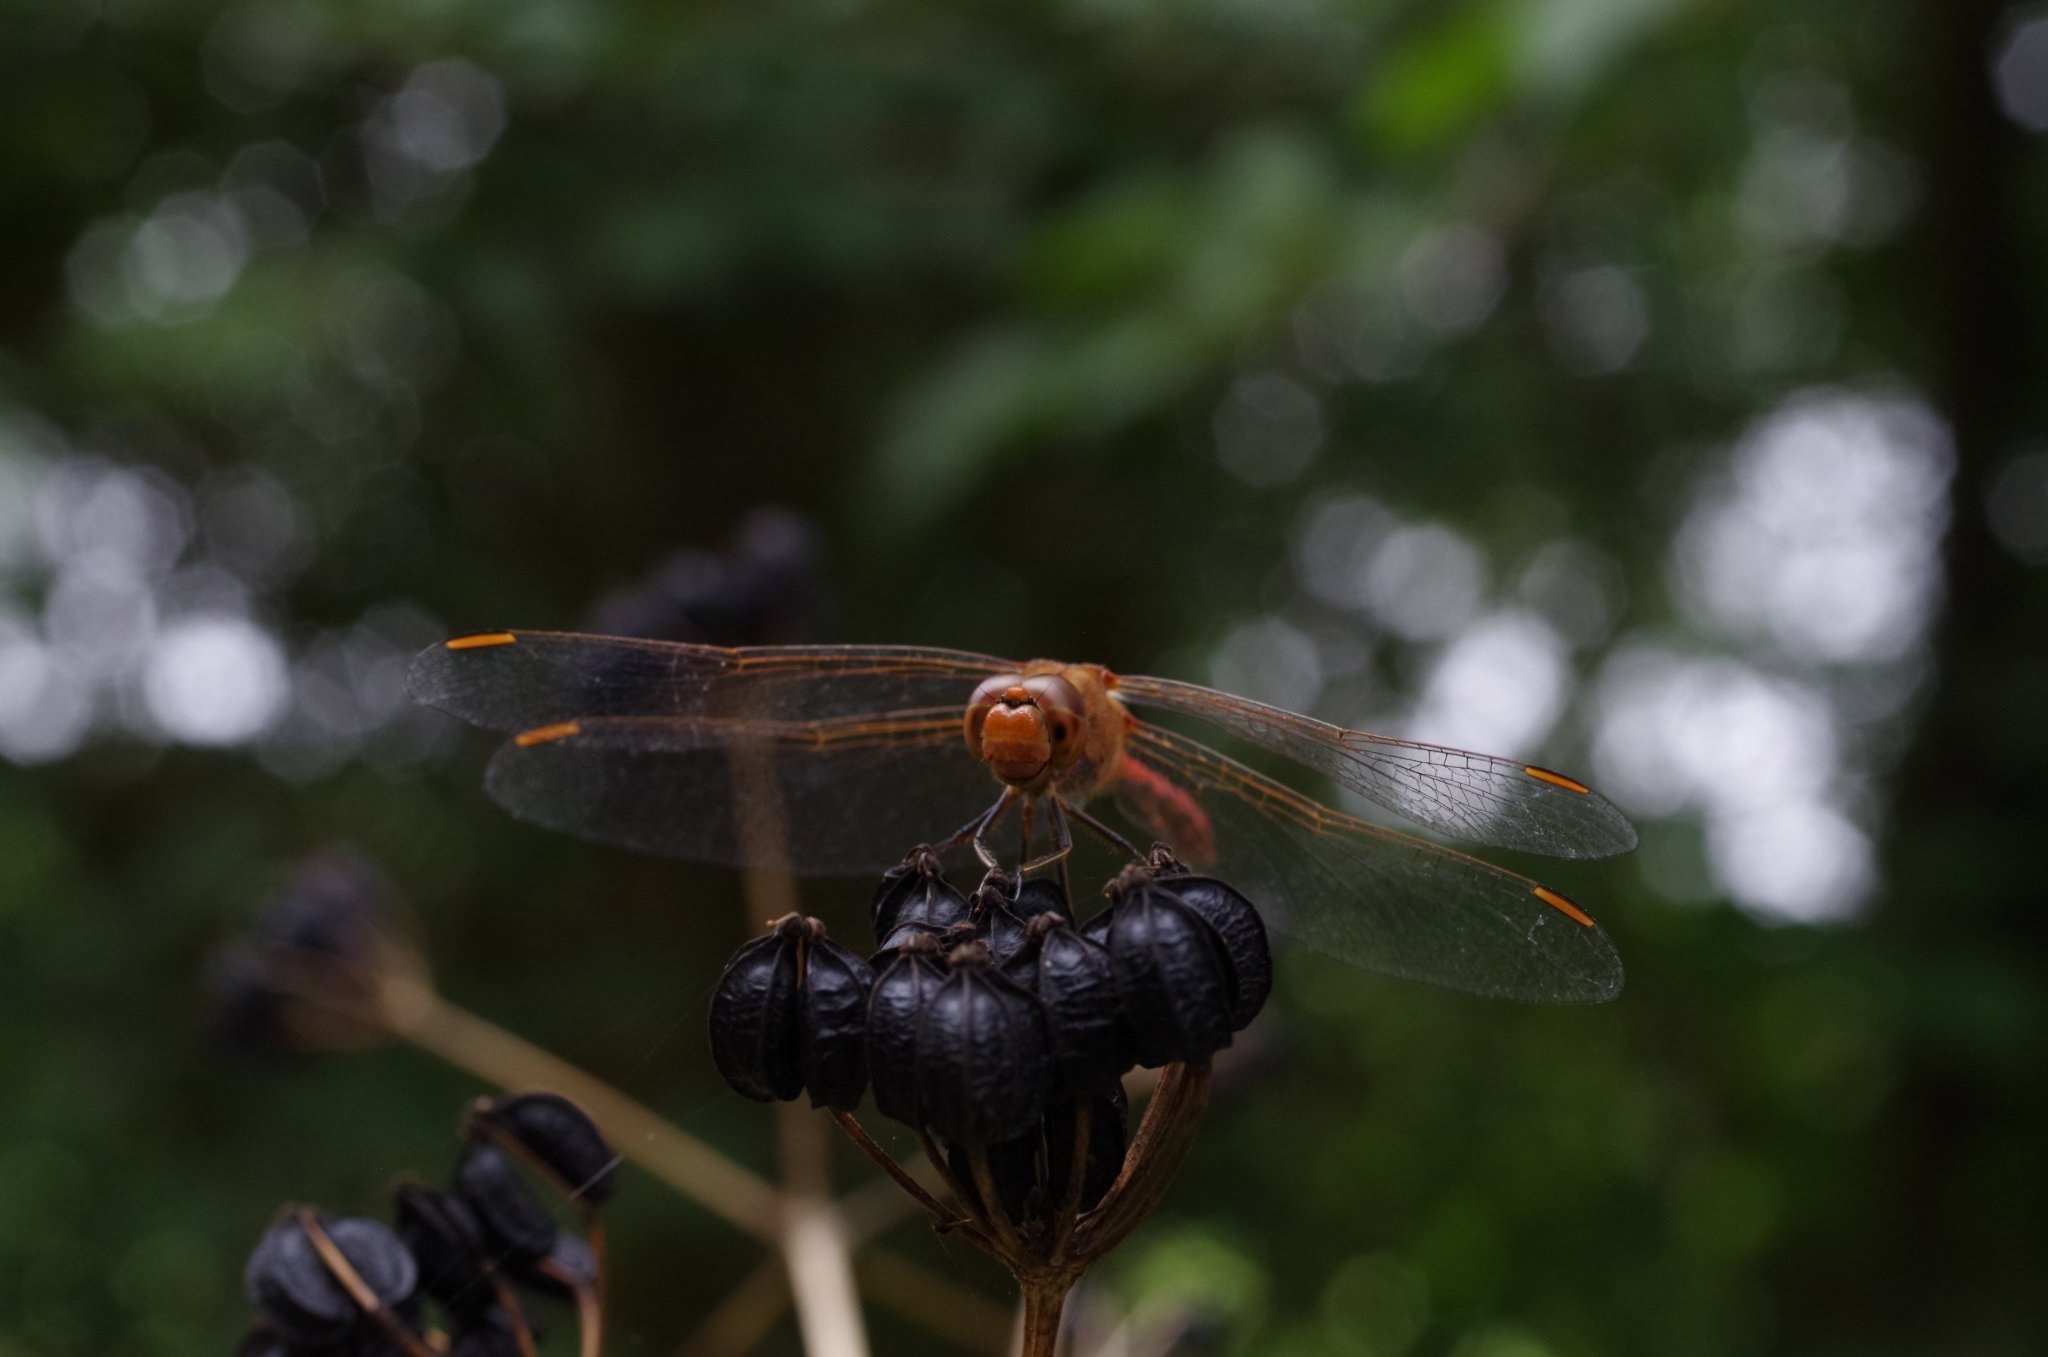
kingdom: Animalia
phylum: Arthropoda
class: Insecta
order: Odonata
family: Libellulidae
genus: Sympetrum
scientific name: Sympetrum meridionale
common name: Southern darter
